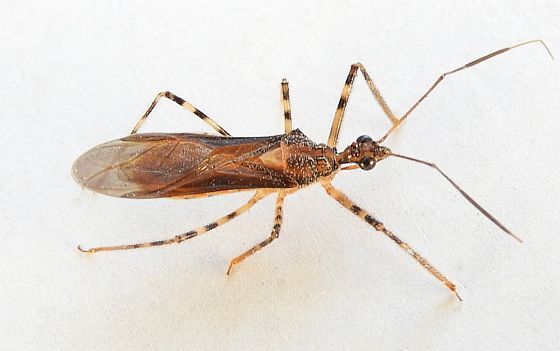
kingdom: Animalia
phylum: Arthropoda
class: Insecta
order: Hemiptera
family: Reduviidae
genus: Castolus
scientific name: Castolus ferox
